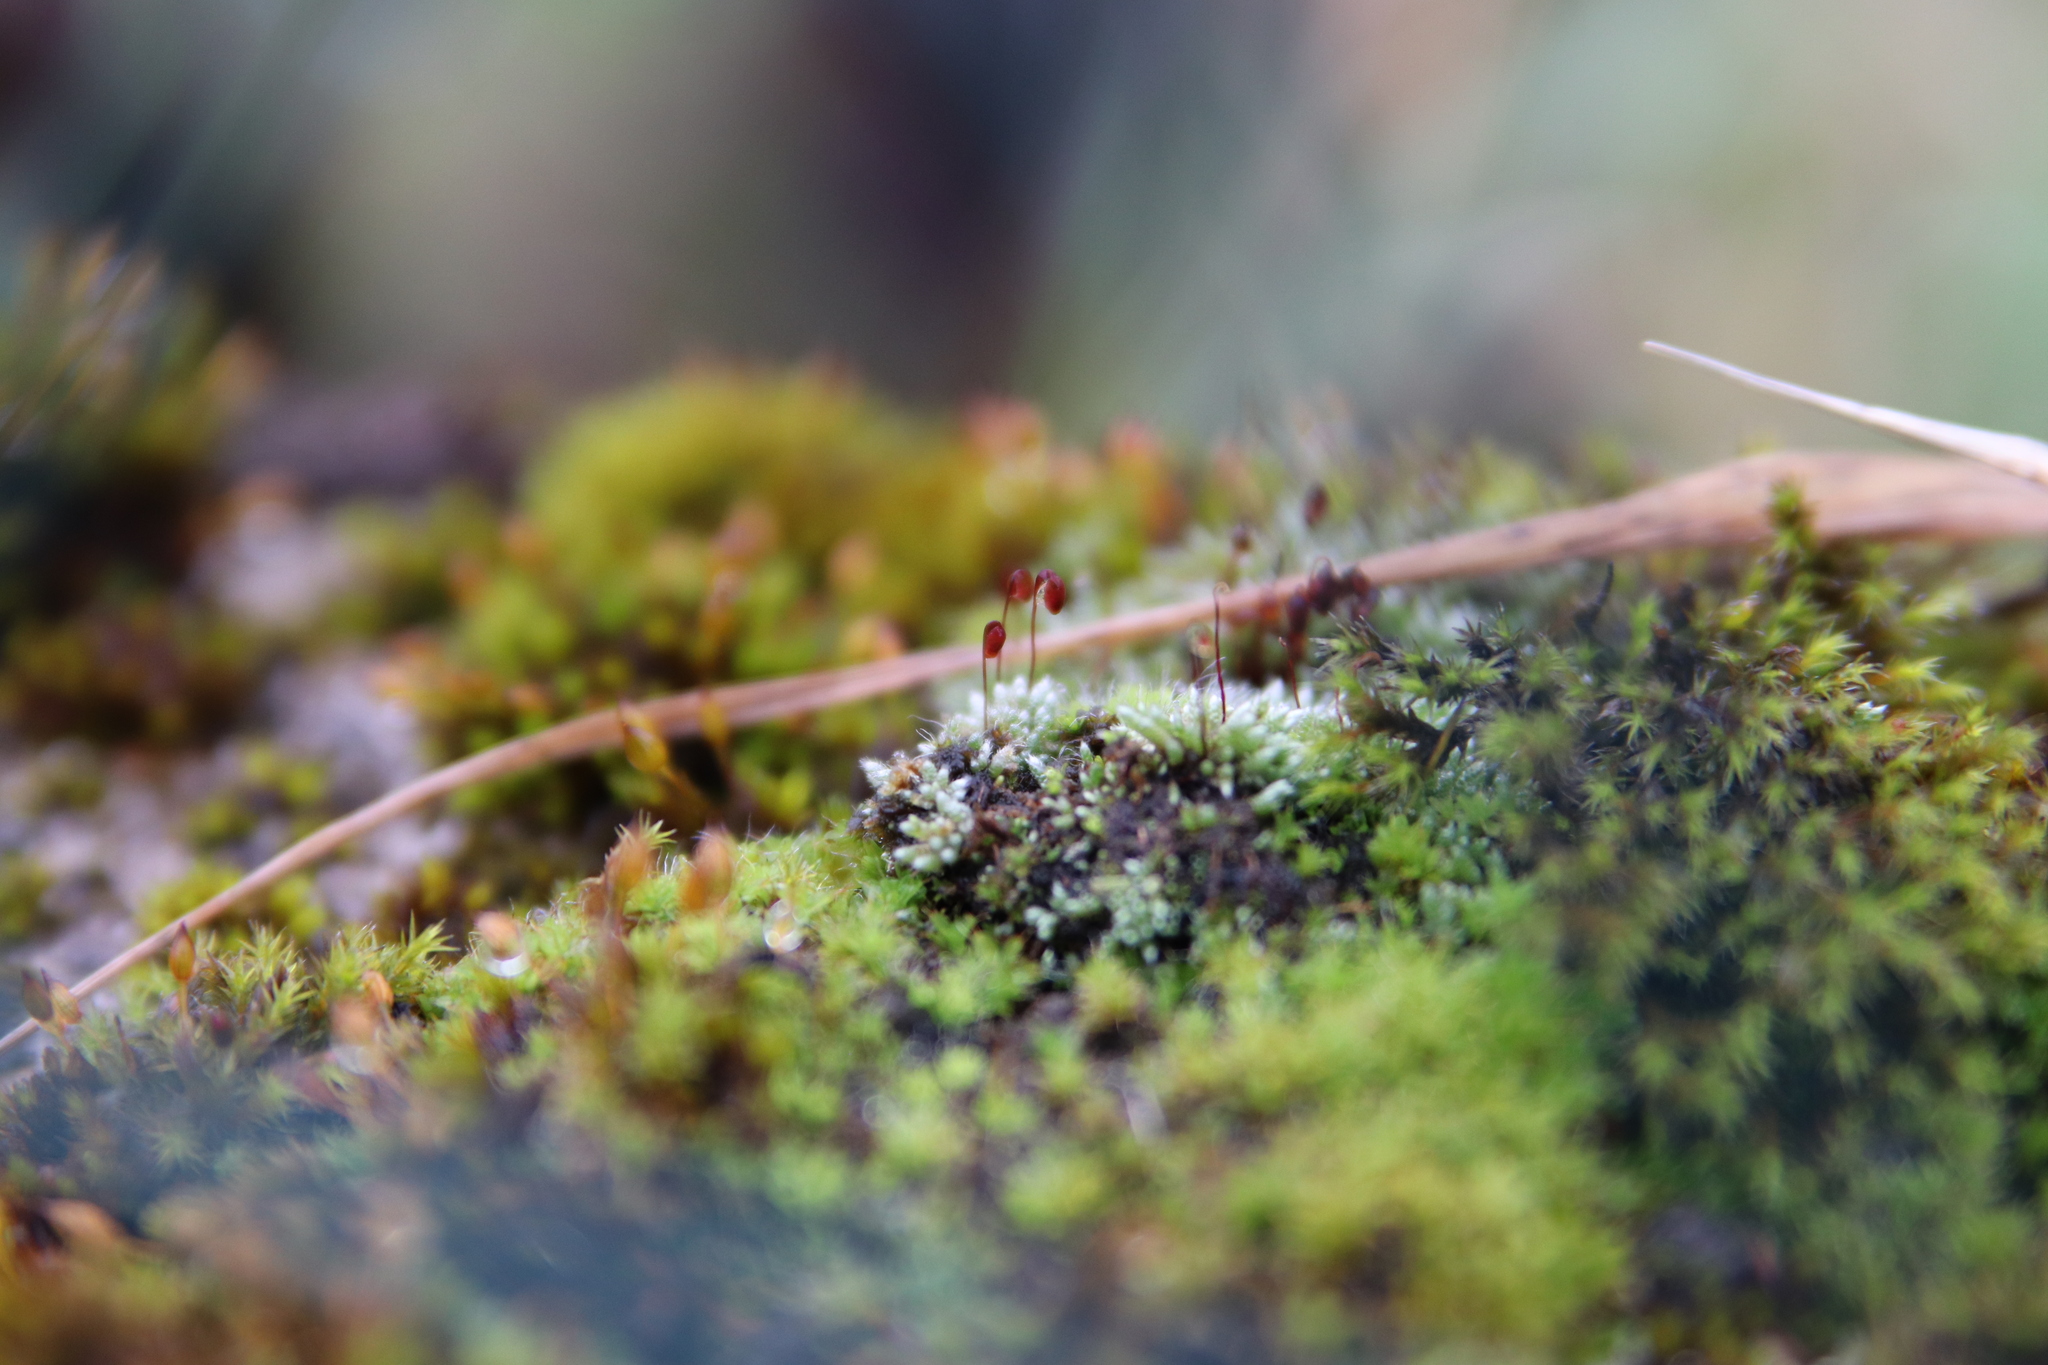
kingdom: Plantae
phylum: Bryophyta
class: Bryopsida
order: Bryales
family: Bryaceae
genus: Bryum
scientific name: Bryum argenteum
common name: Silver-moss
